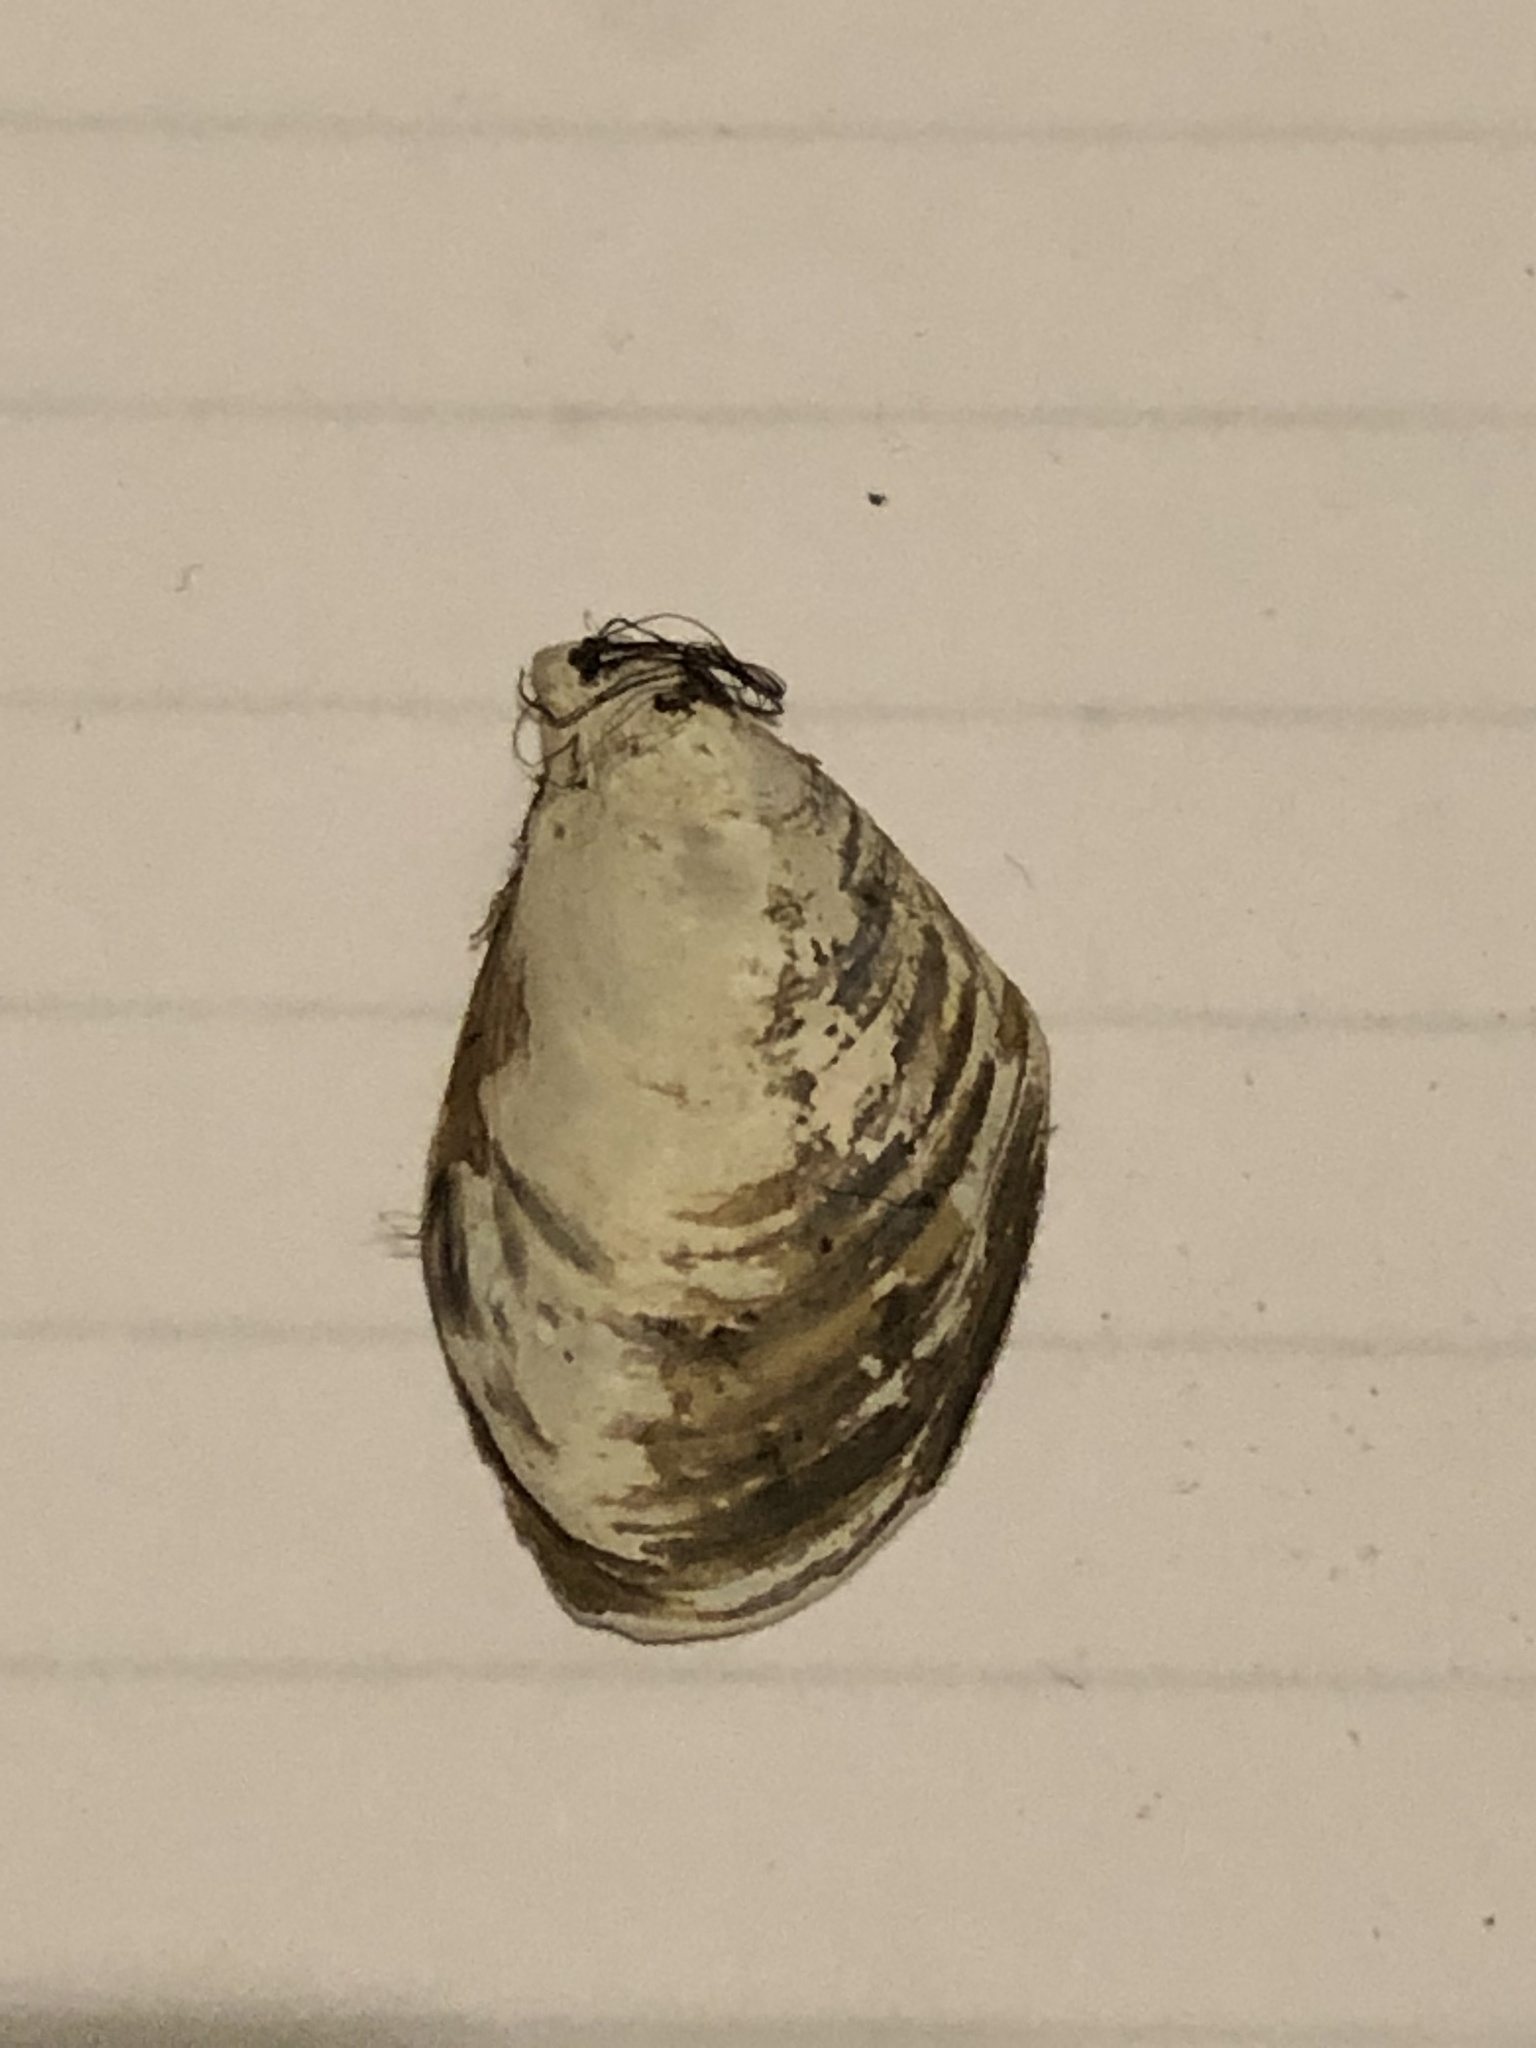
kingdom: Animalia
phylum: Mollusca
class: Bivalvia
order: Myida
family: Dreissenidae
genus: Dreissena
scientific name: Dreissena bugensis
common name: Quagga mussel
